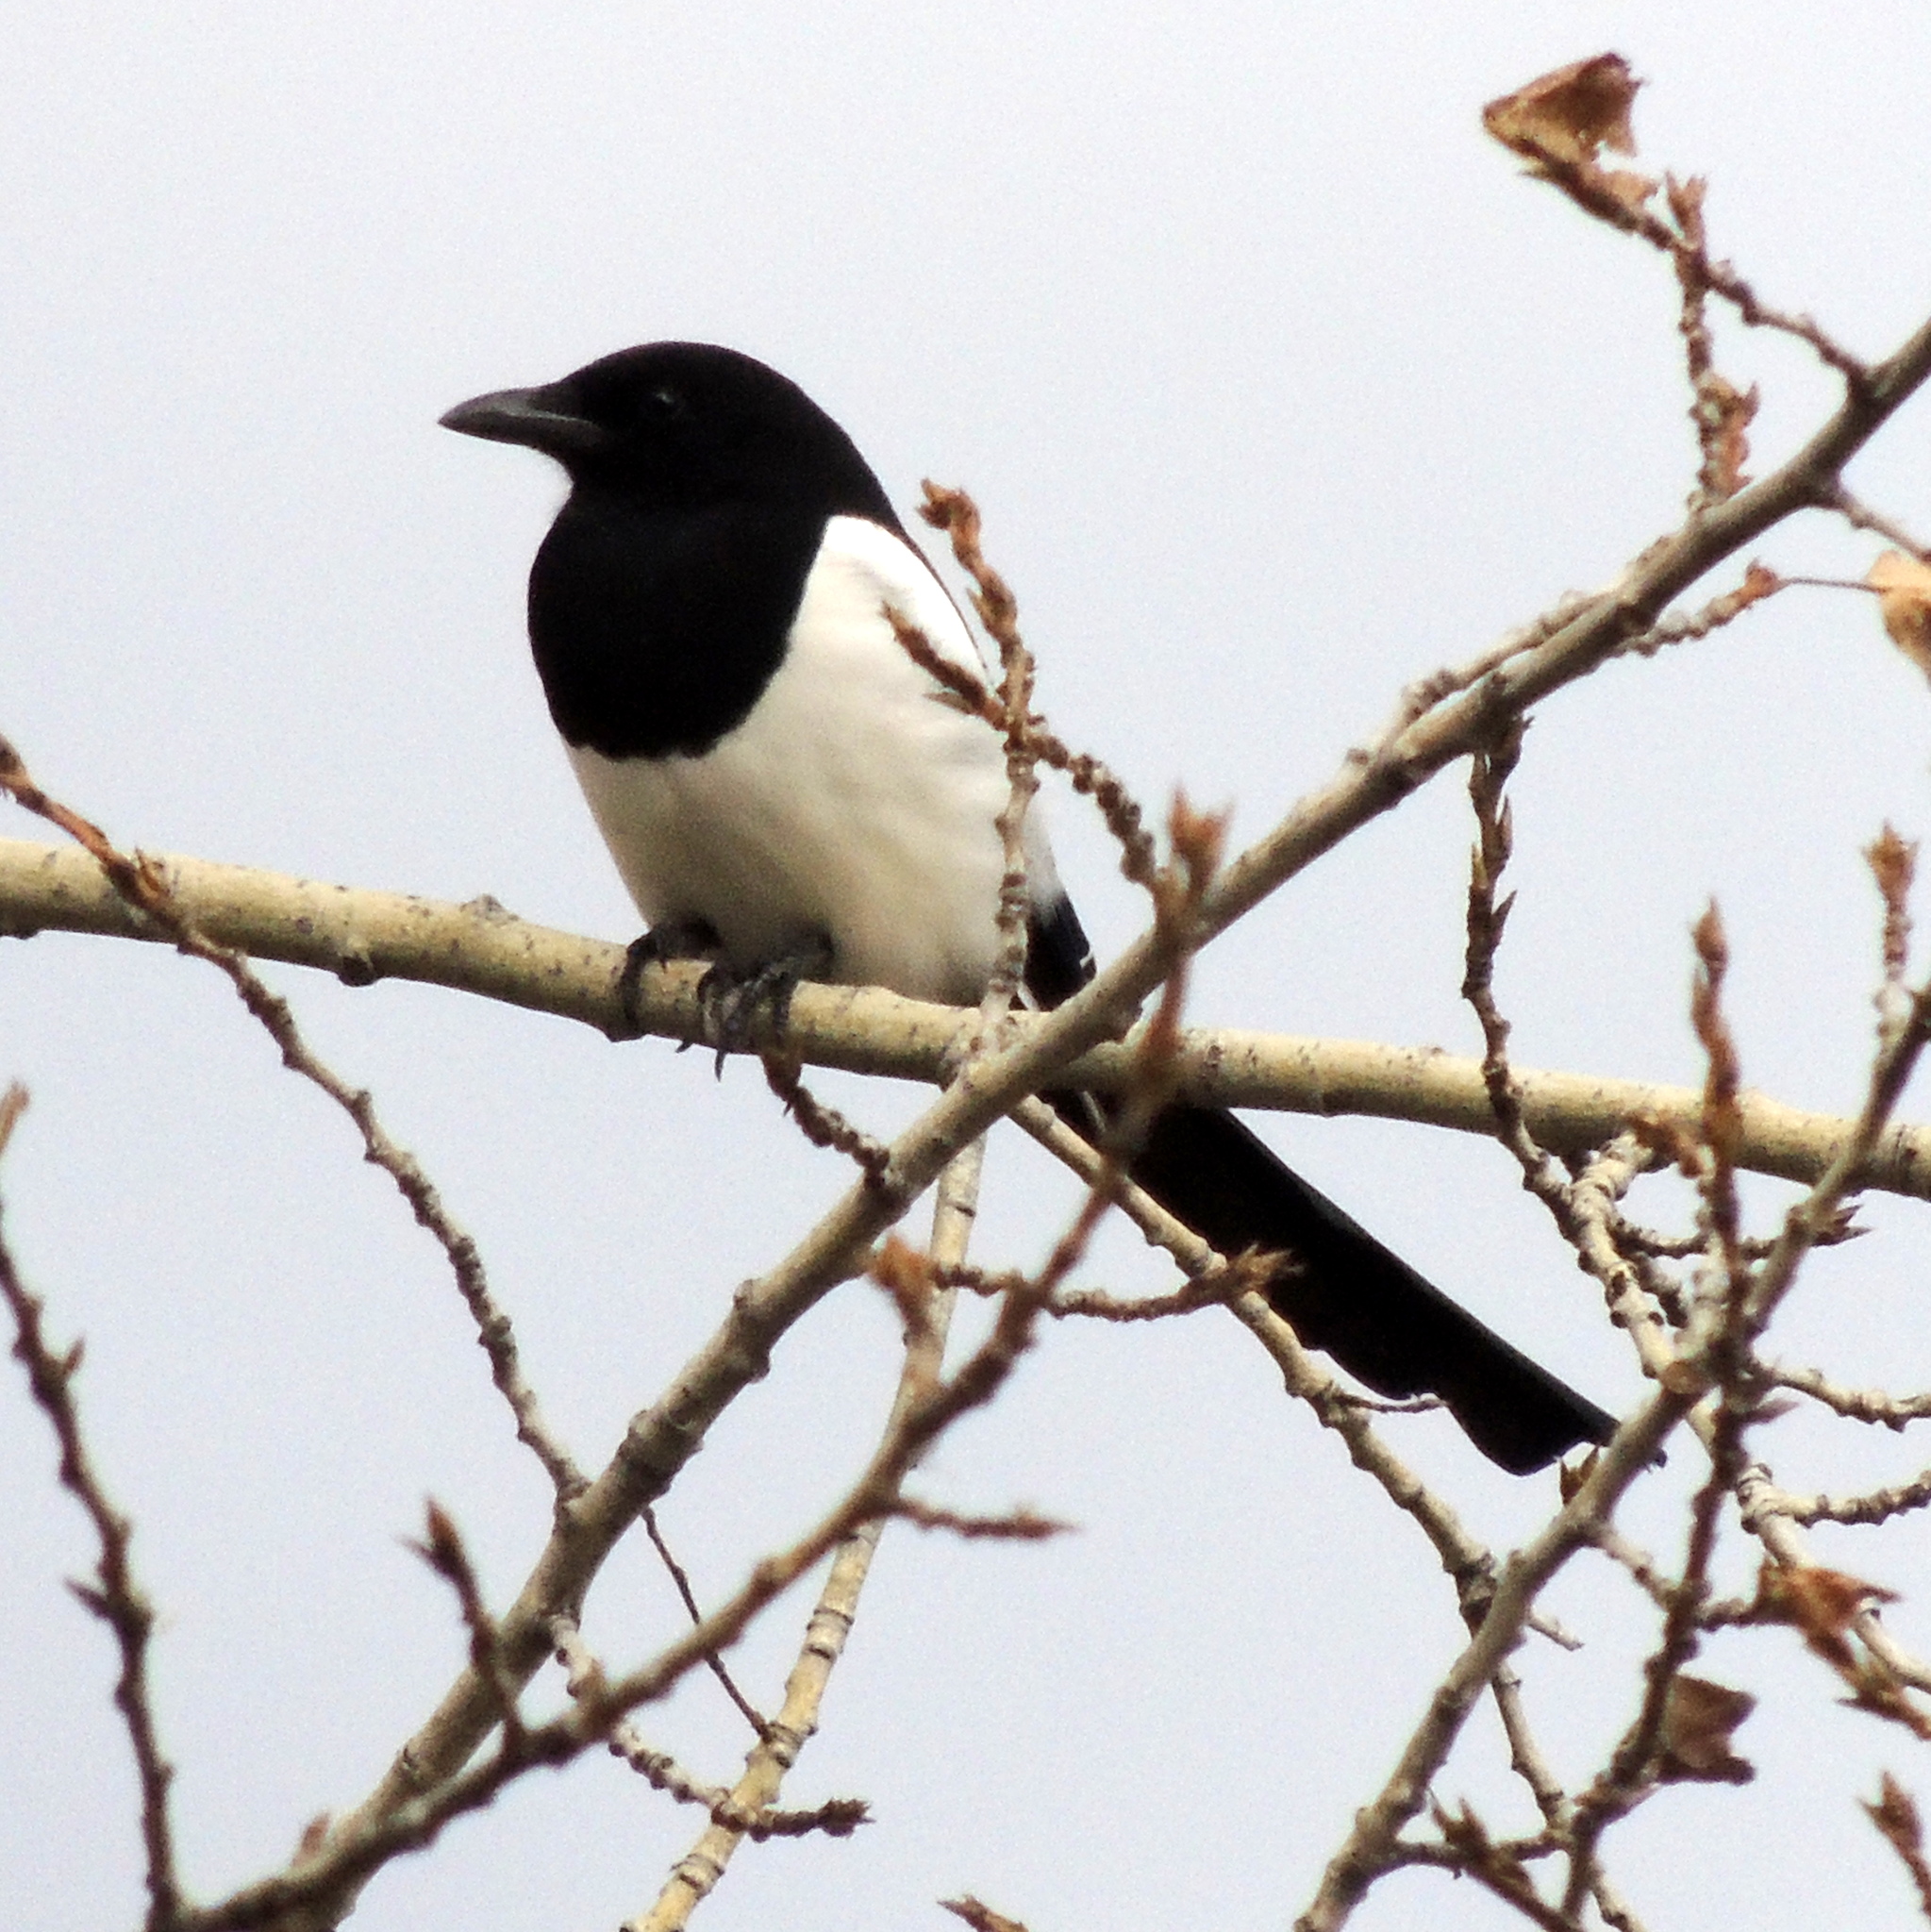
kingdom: Animalia
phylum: Chordata
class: Aves
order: Passeriformes
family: Corvidae
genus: Pica
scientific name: Pica pica
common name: Eurasian magpie
